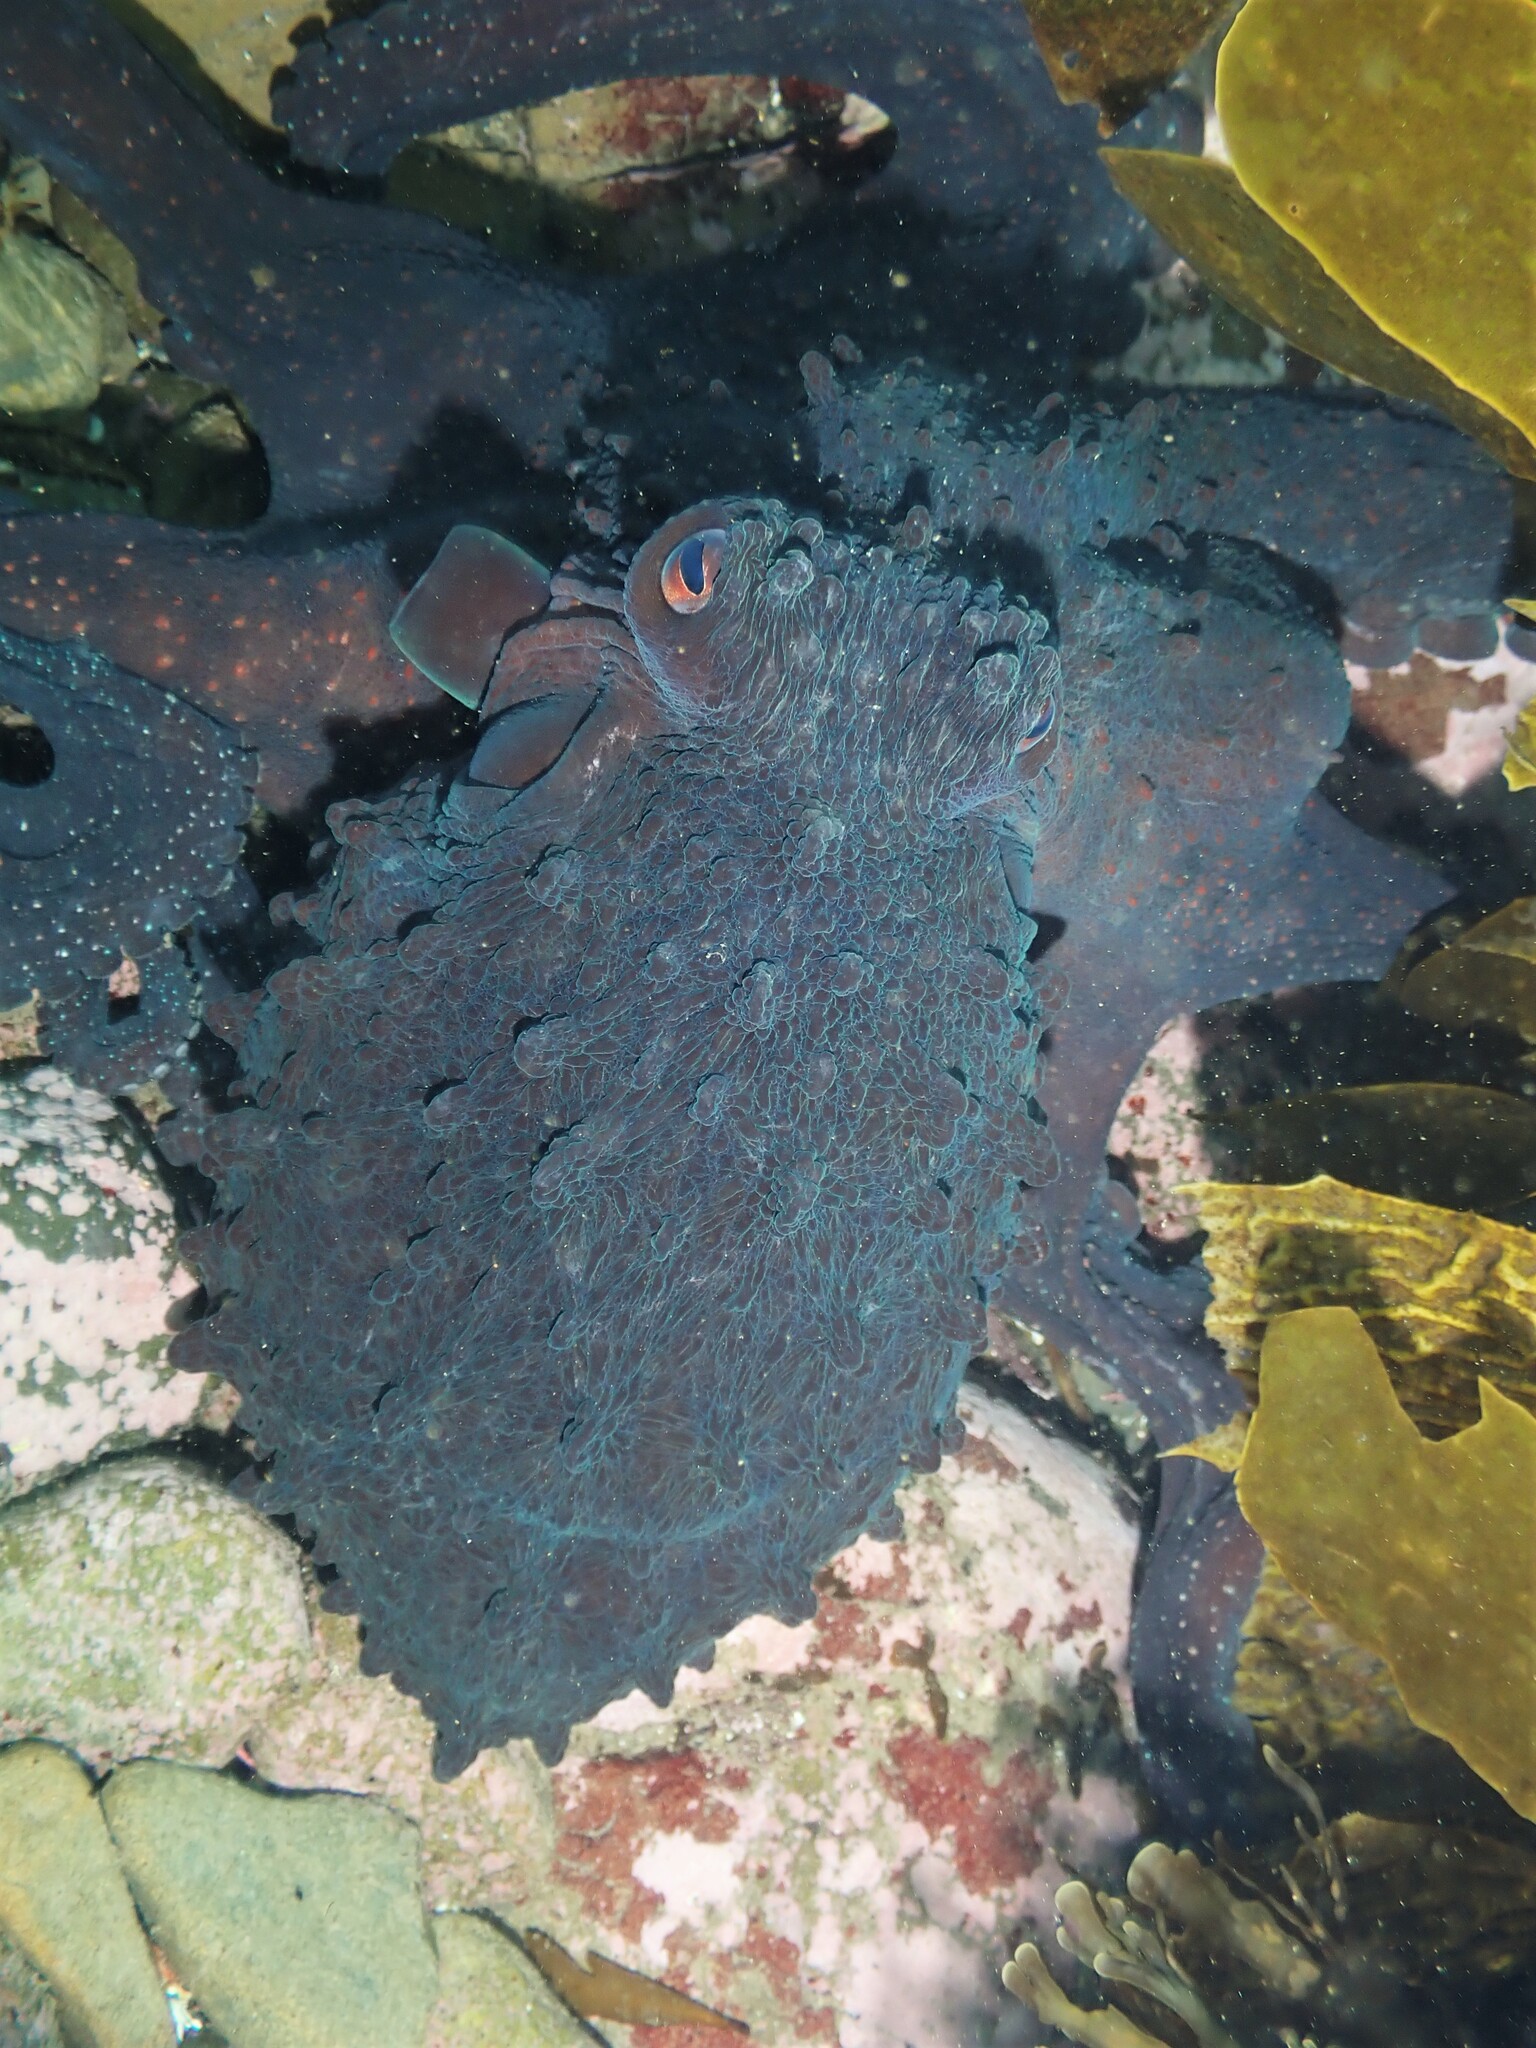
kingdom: Animalia
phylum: Mollusca
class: Cephalopoda
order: Octopoda
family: Octopodidae
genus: Macroctopus
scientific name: Macroctopus maorum
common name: Maori octopus
